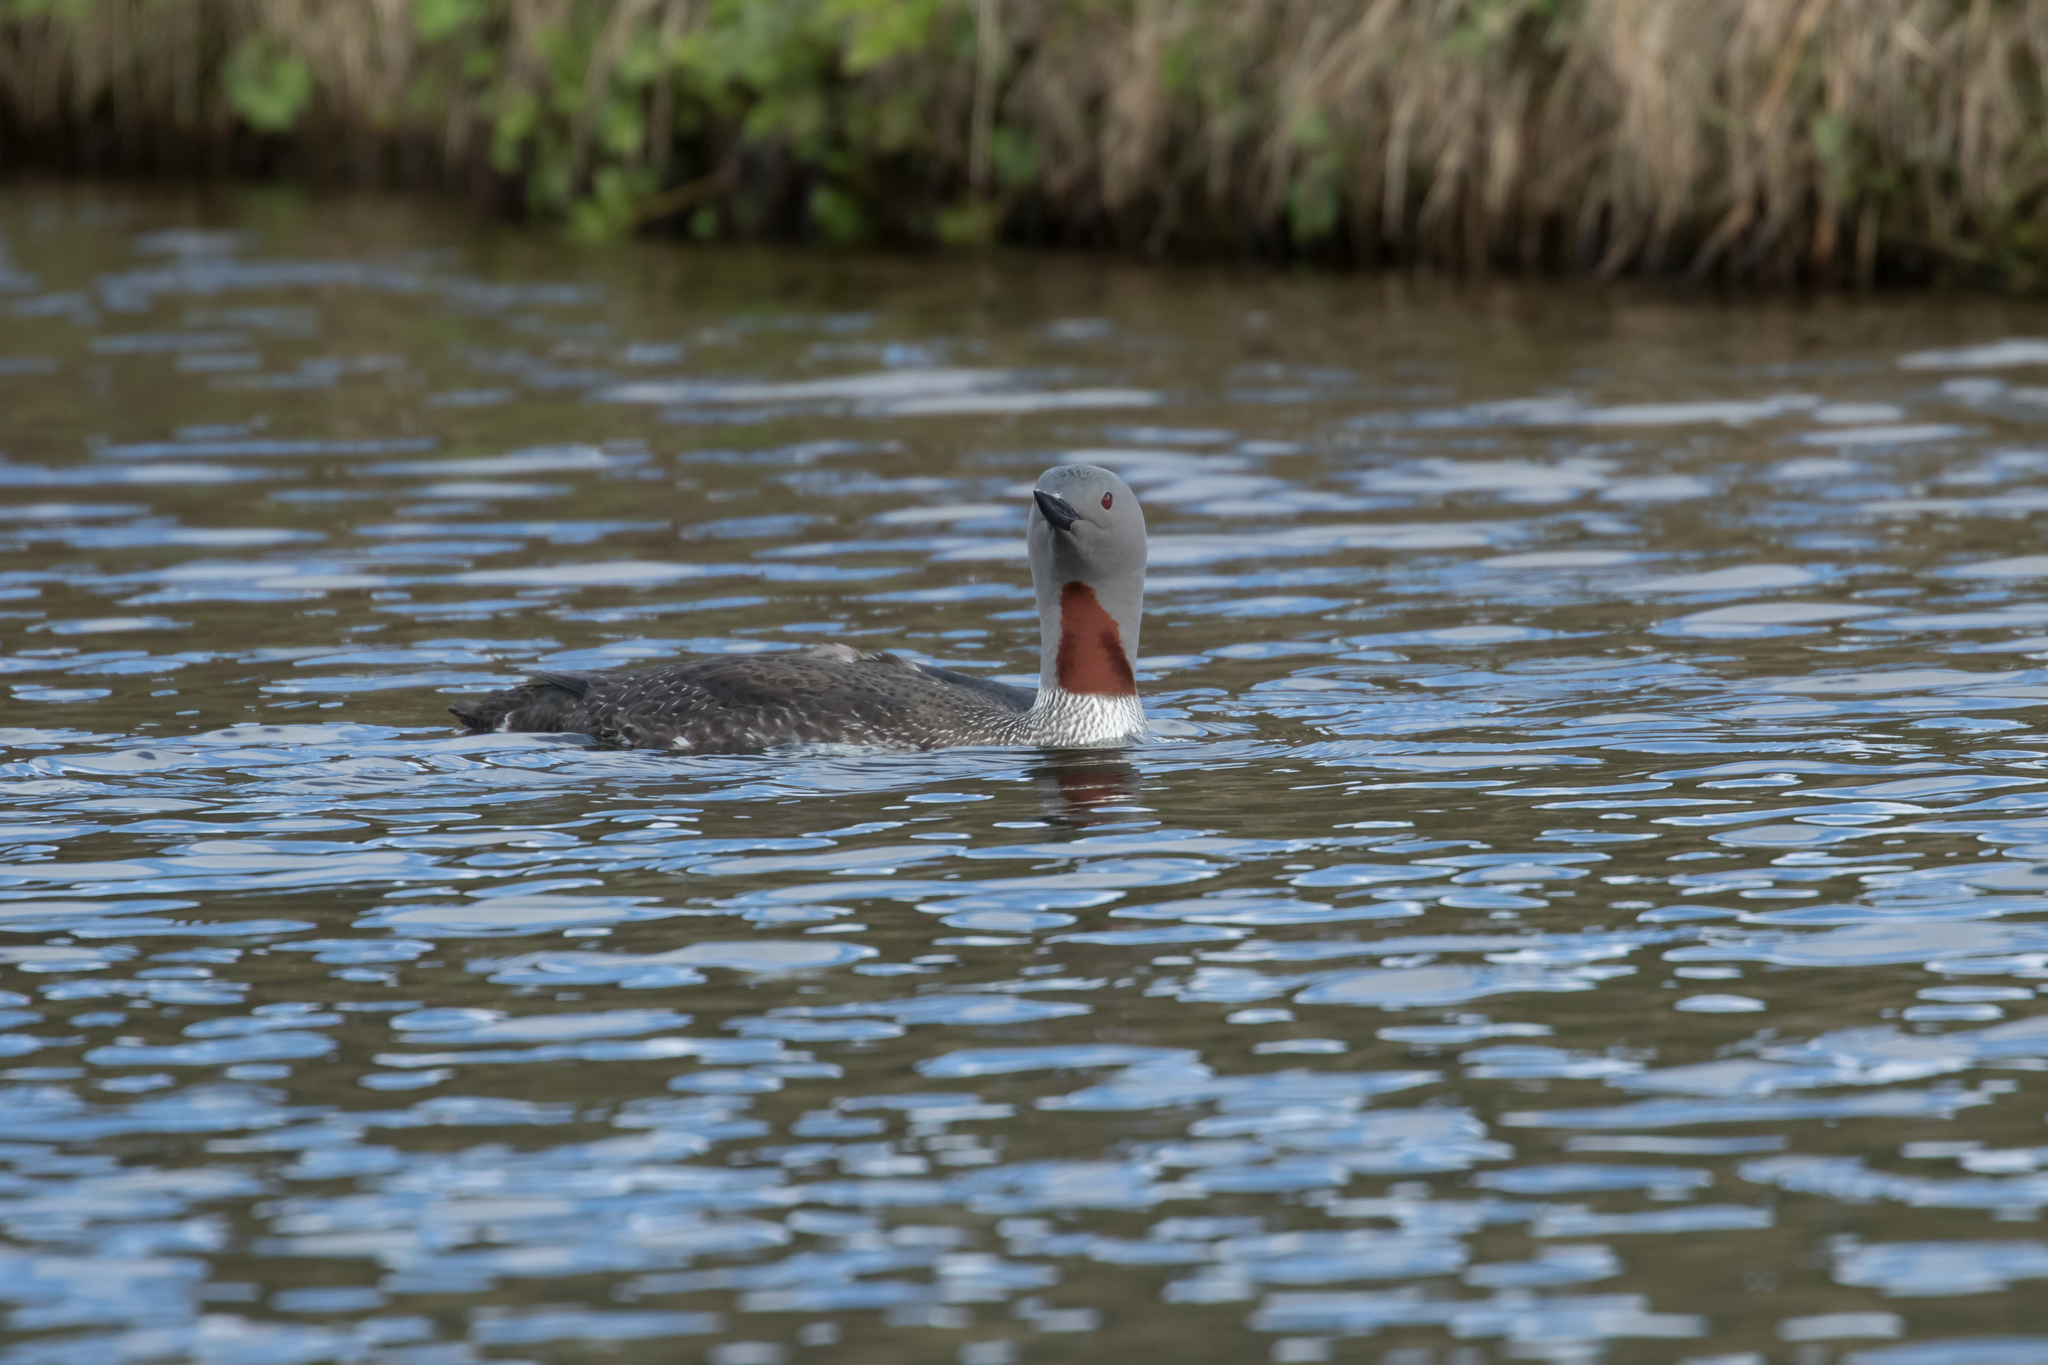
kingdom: Animalia
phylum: Chordata
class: Aves
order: Gaviiformes
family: Gaviidae
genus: Gavia
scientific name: Gavia stellata
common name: Red-throated loon
